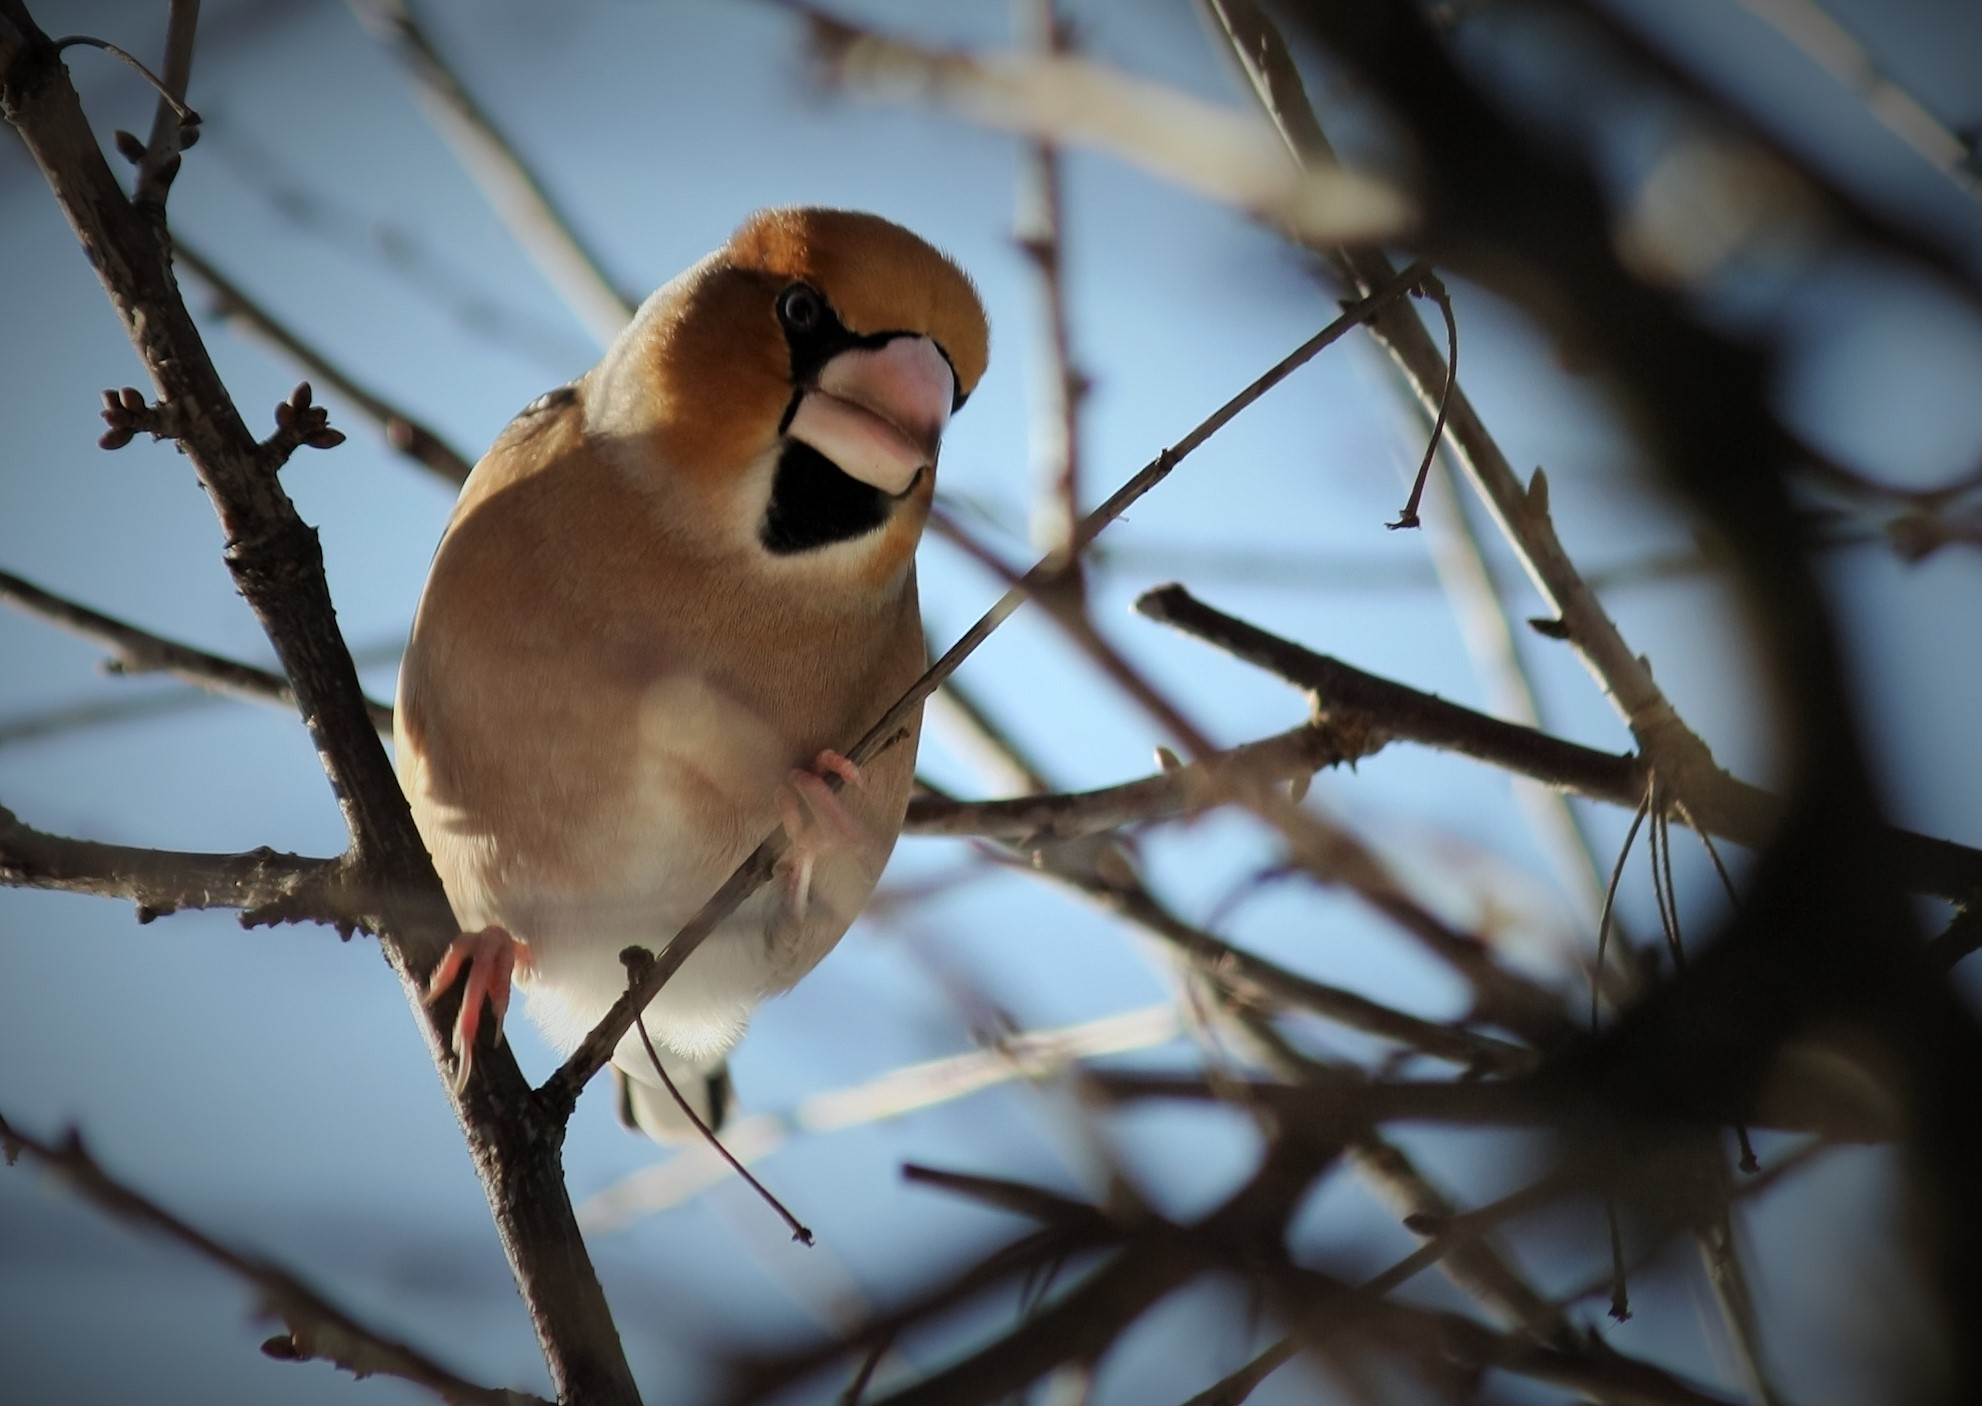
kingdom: Animalia
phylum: Chordata
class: Aves
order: Passeriformes
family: Fringillidae
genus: Coccothraustes
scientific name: Coccothraustes coccothraustes
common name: Hawfinch
